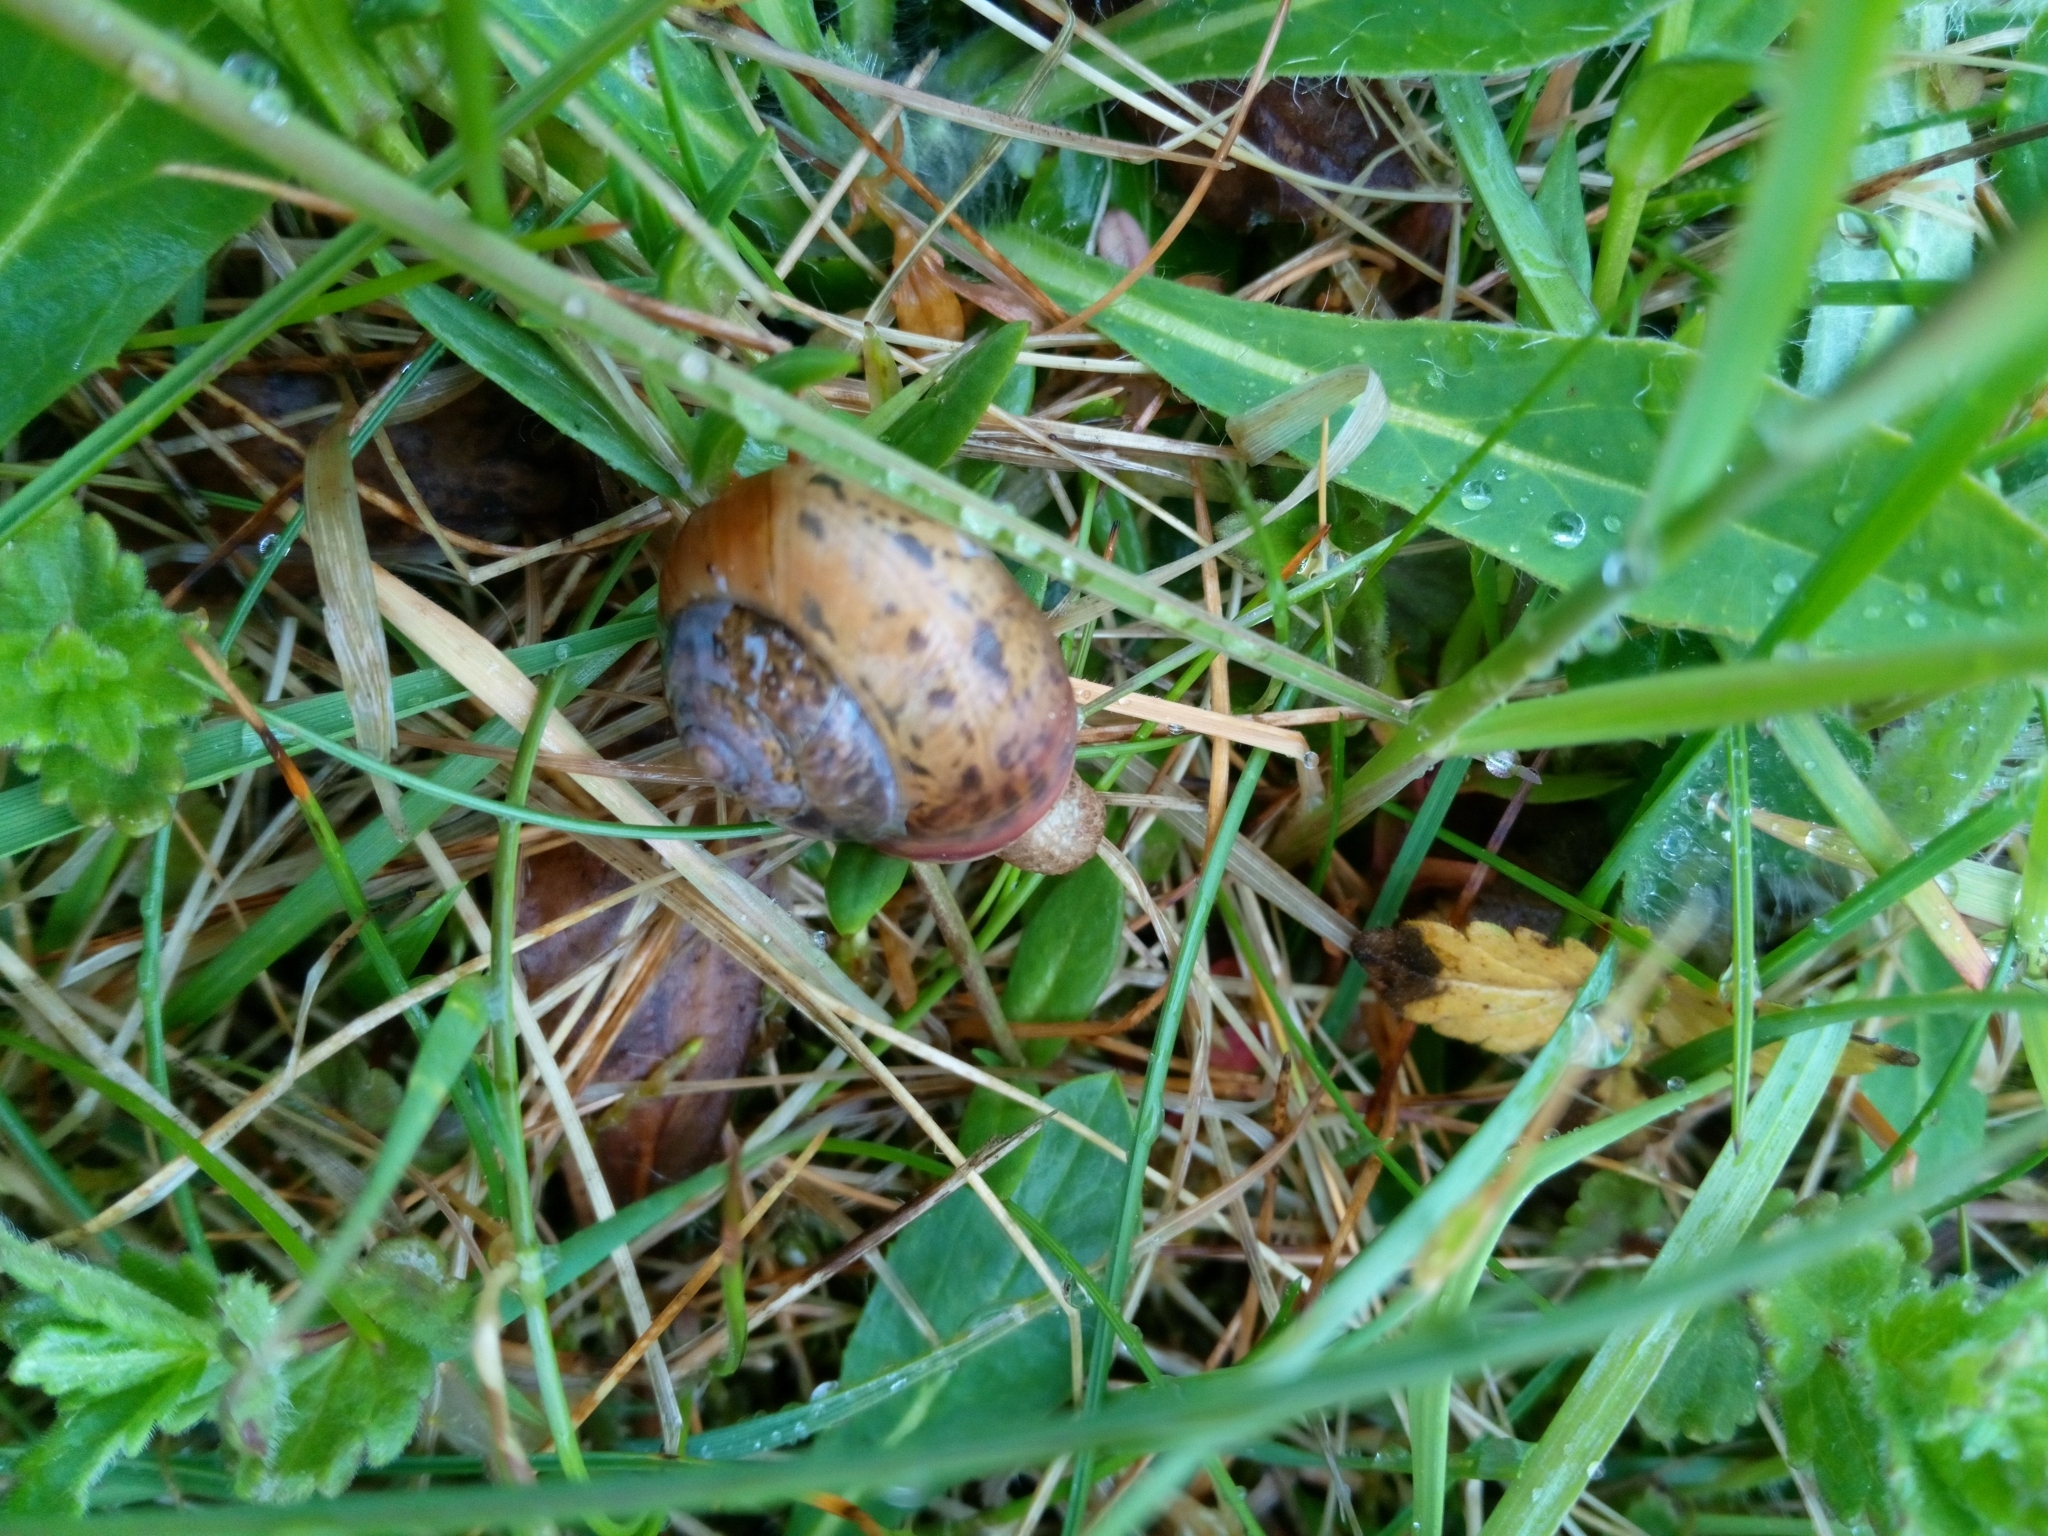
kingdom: Animalia
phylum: Mollusca
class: Gastropoda
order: Stylommatophora
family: Camaenidae
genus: Fruticicola
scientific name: Fruticicola fruticum
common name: Bush snail
